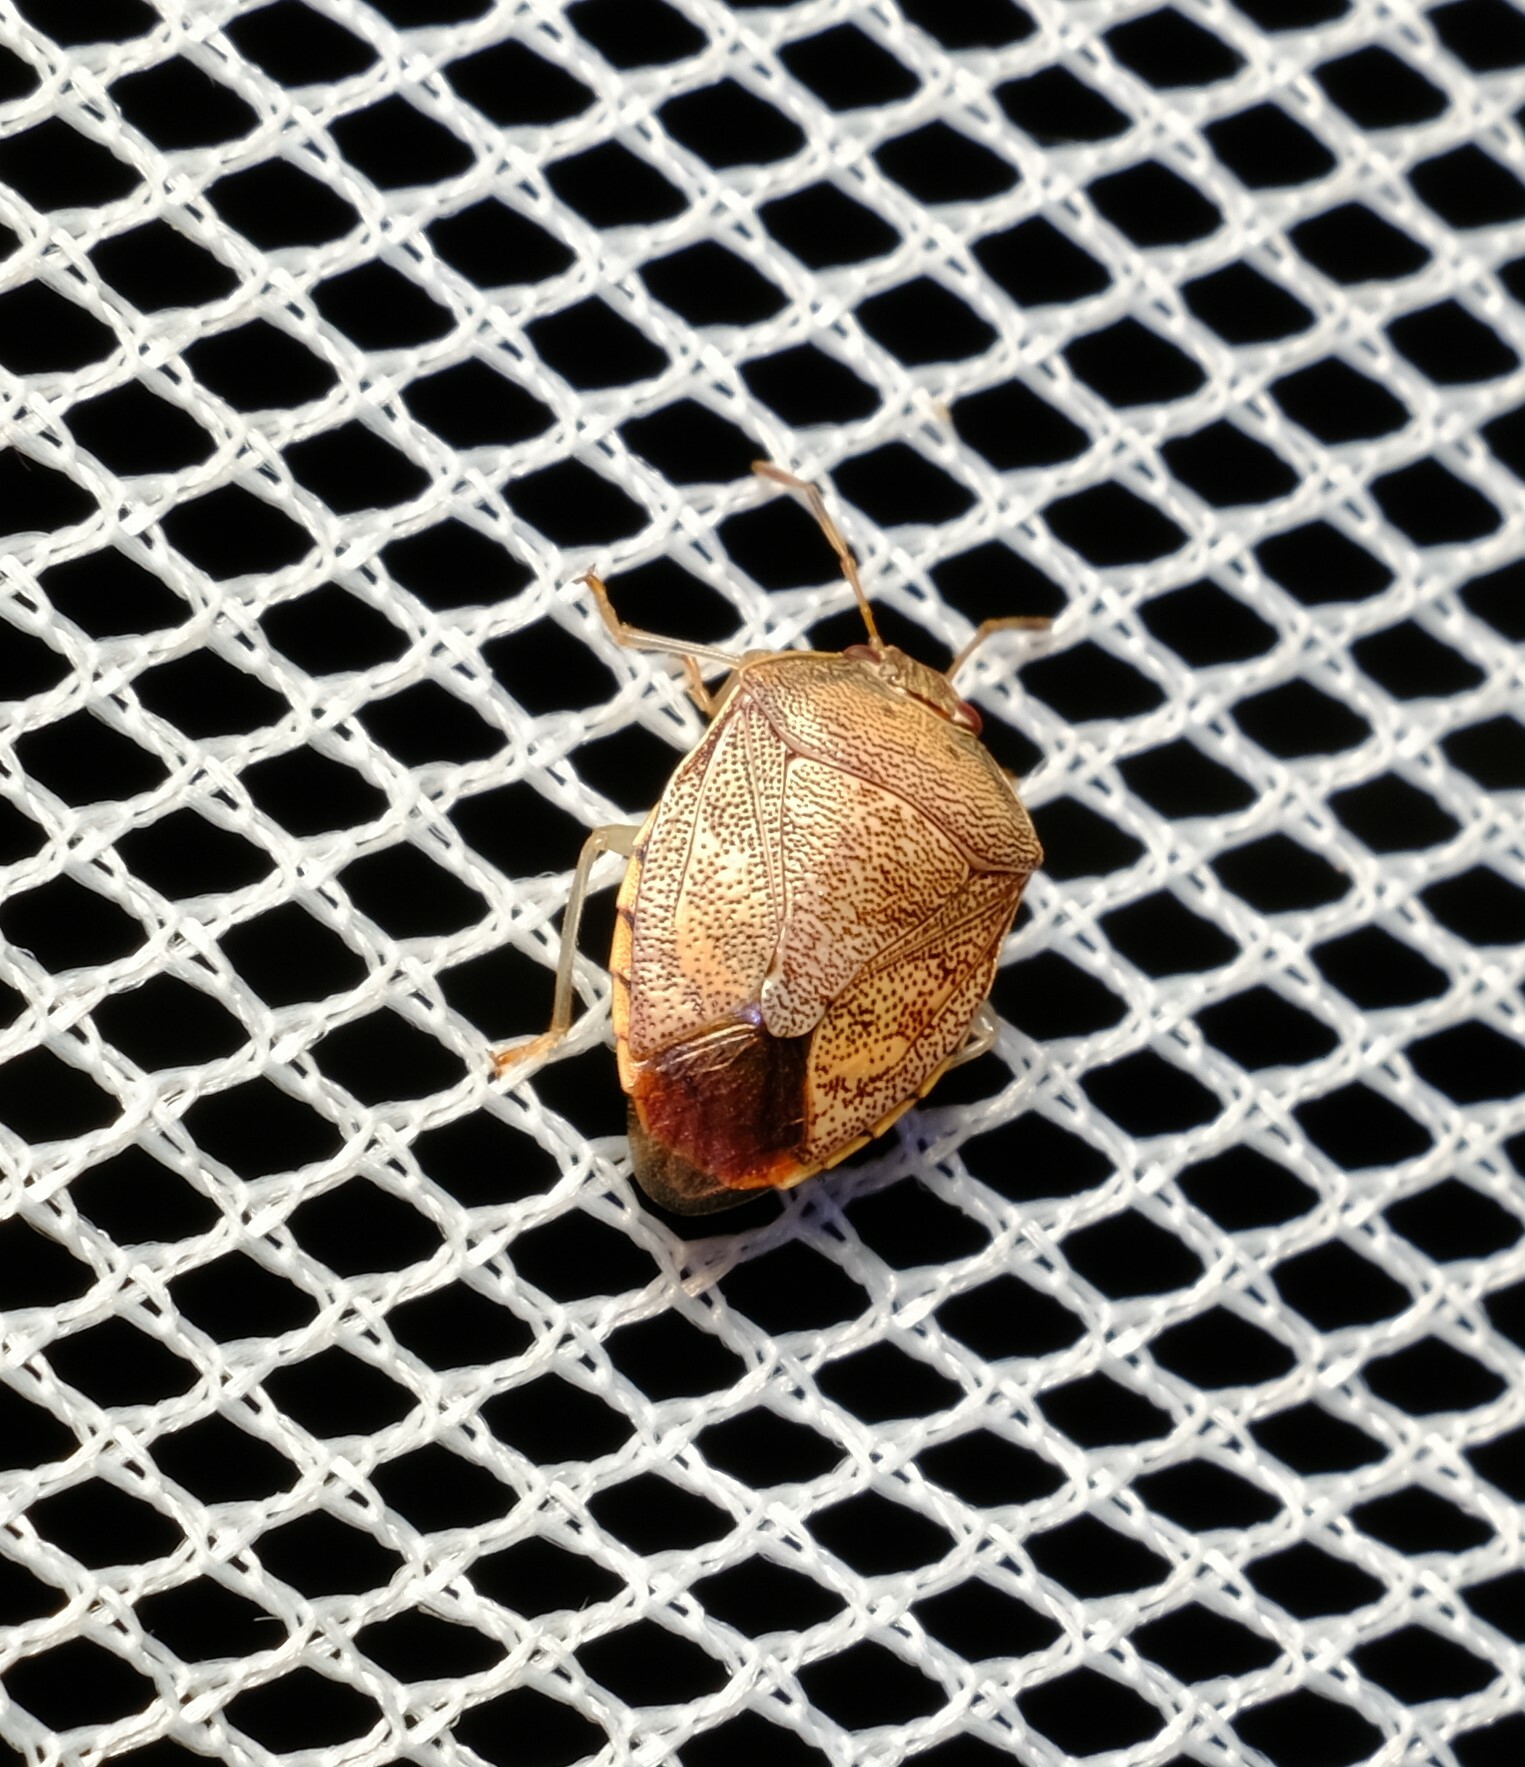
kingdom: Animalia
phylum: Arthropoda
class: Insecta
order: Hemiptera
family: Pentatomidae
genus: Menida
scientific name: Menida
